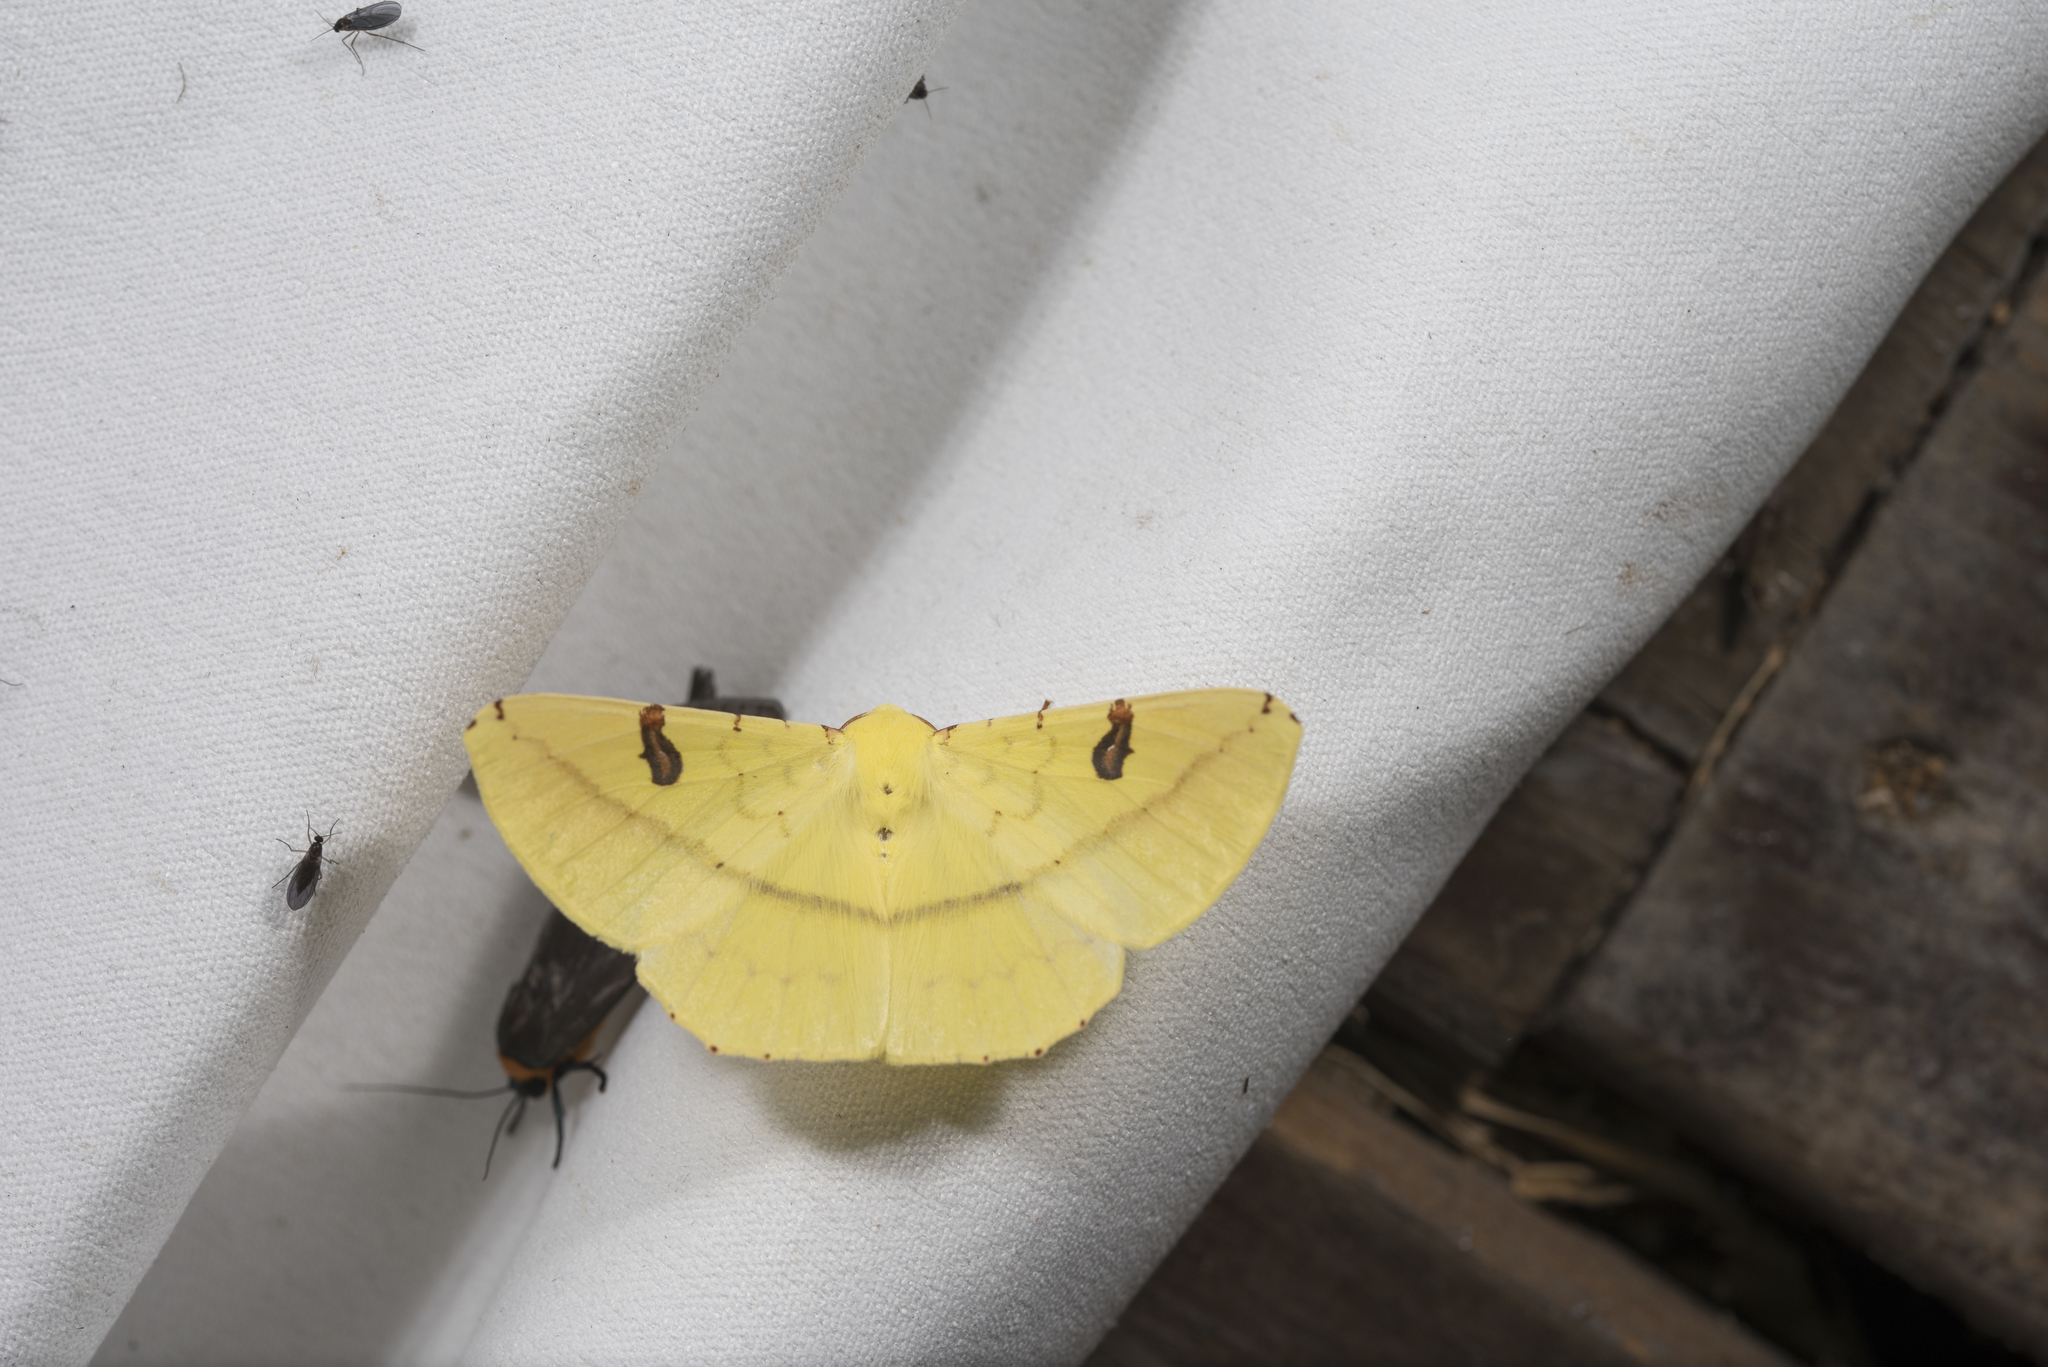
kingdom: Animalia
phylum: Arthropoda
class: Insecta
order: Lepidoptera
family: Geometridae
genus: Opisthograptis
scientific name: Opisthograptis moelleri
